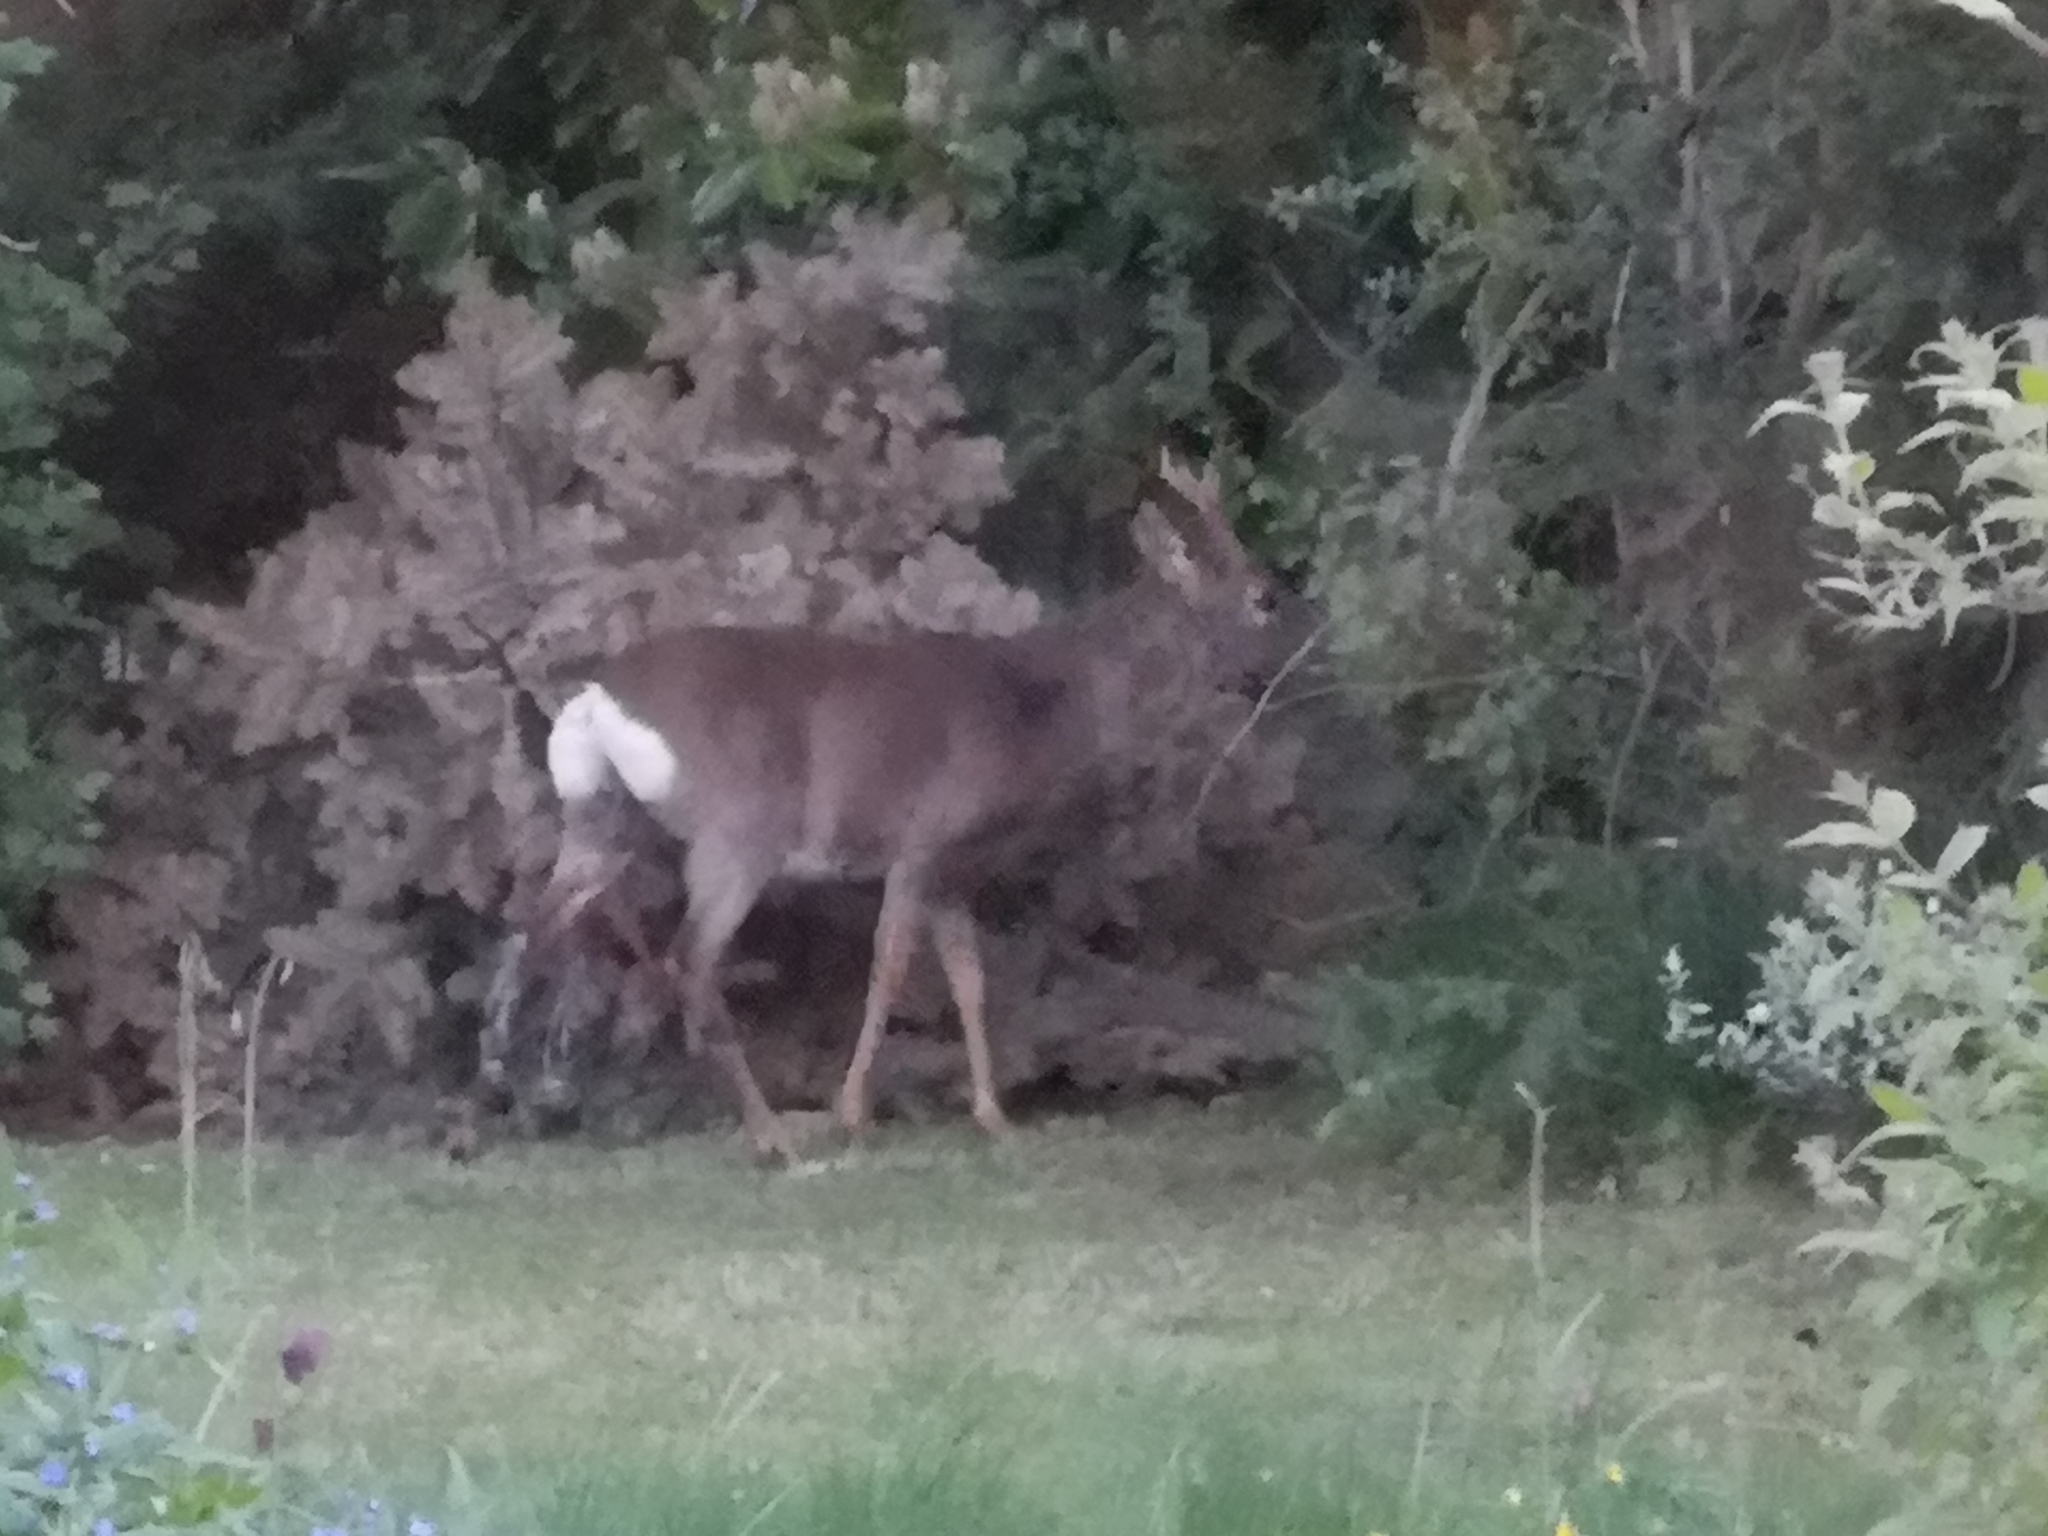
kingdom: Animalia
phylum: Chordata
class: Mammalia
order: Artiodactyla
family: Cervidae
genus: Capreolus
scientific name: Capreolus capreolus
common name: Western roe deer
